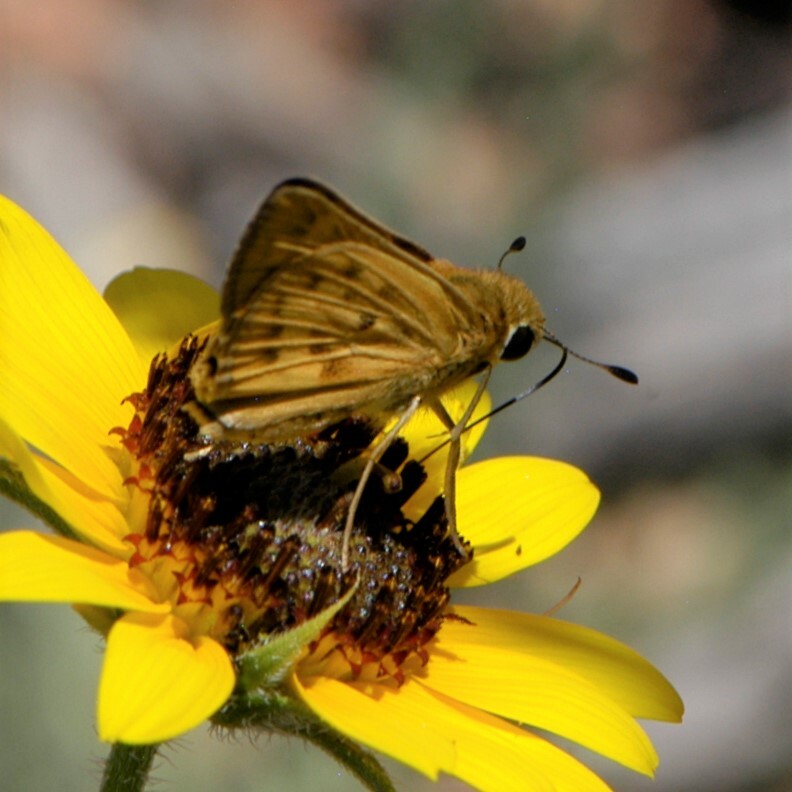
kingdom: Animalia
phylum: Arthropoda
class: Insecta
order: Lepidoptera
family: Hesperiidae
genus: Hylephila
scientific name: Hylephila phyleus
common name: Fiery skipper
